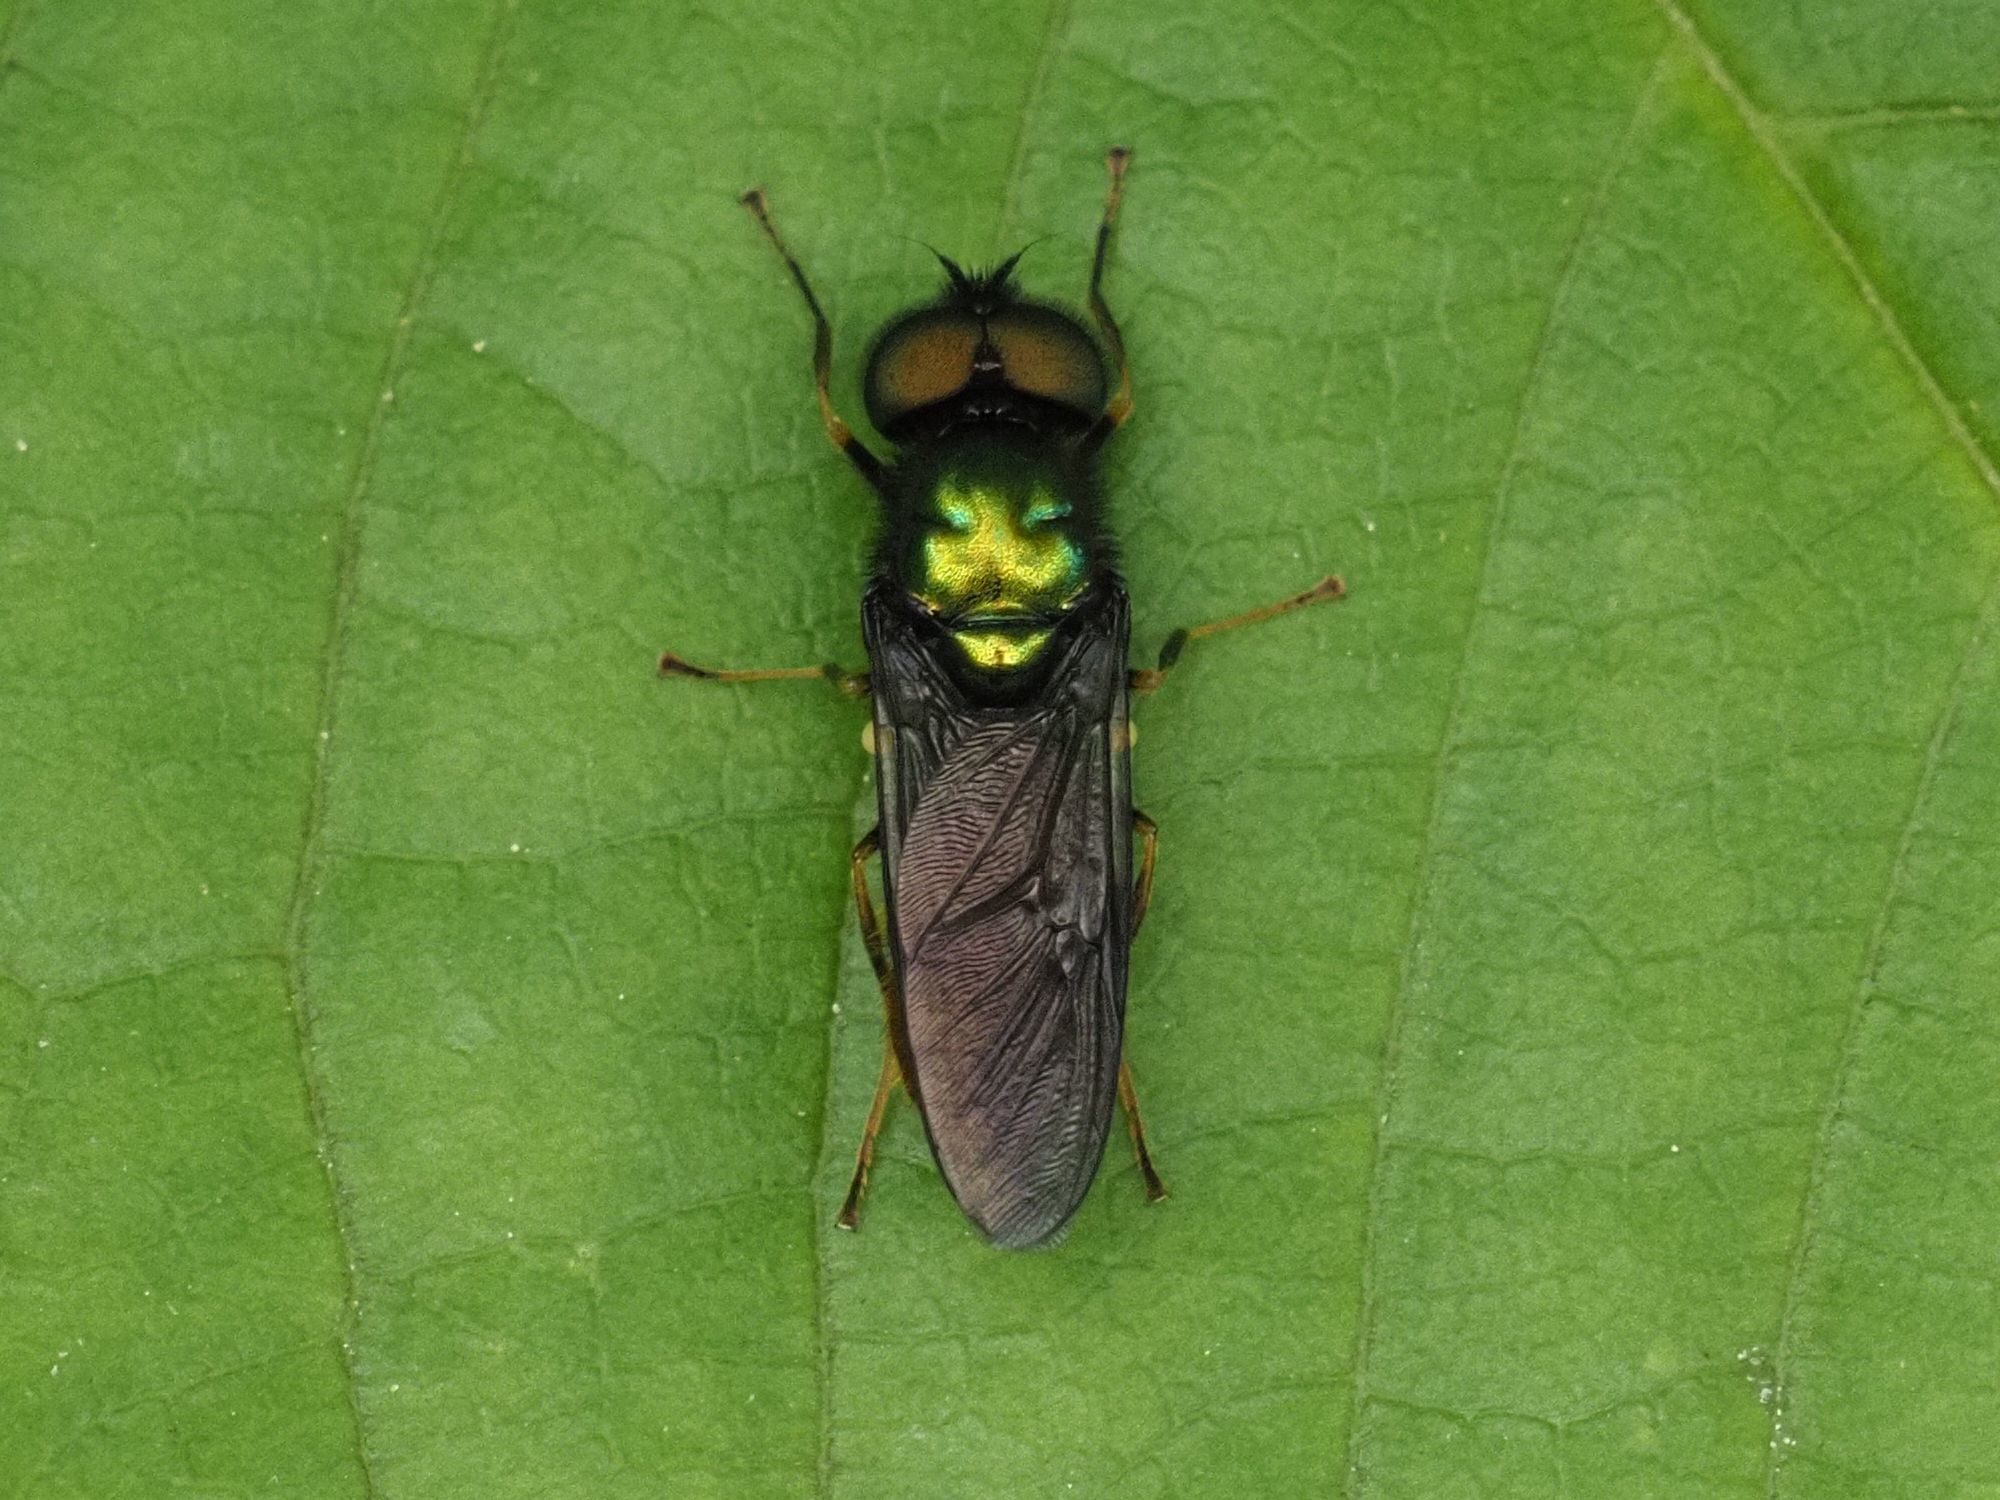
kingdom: Animalia
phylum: Arthropoda
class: Insecta
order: Diptera
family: Stratiomyidae
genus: Chloromyia
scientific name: Chloromyia speciosa
